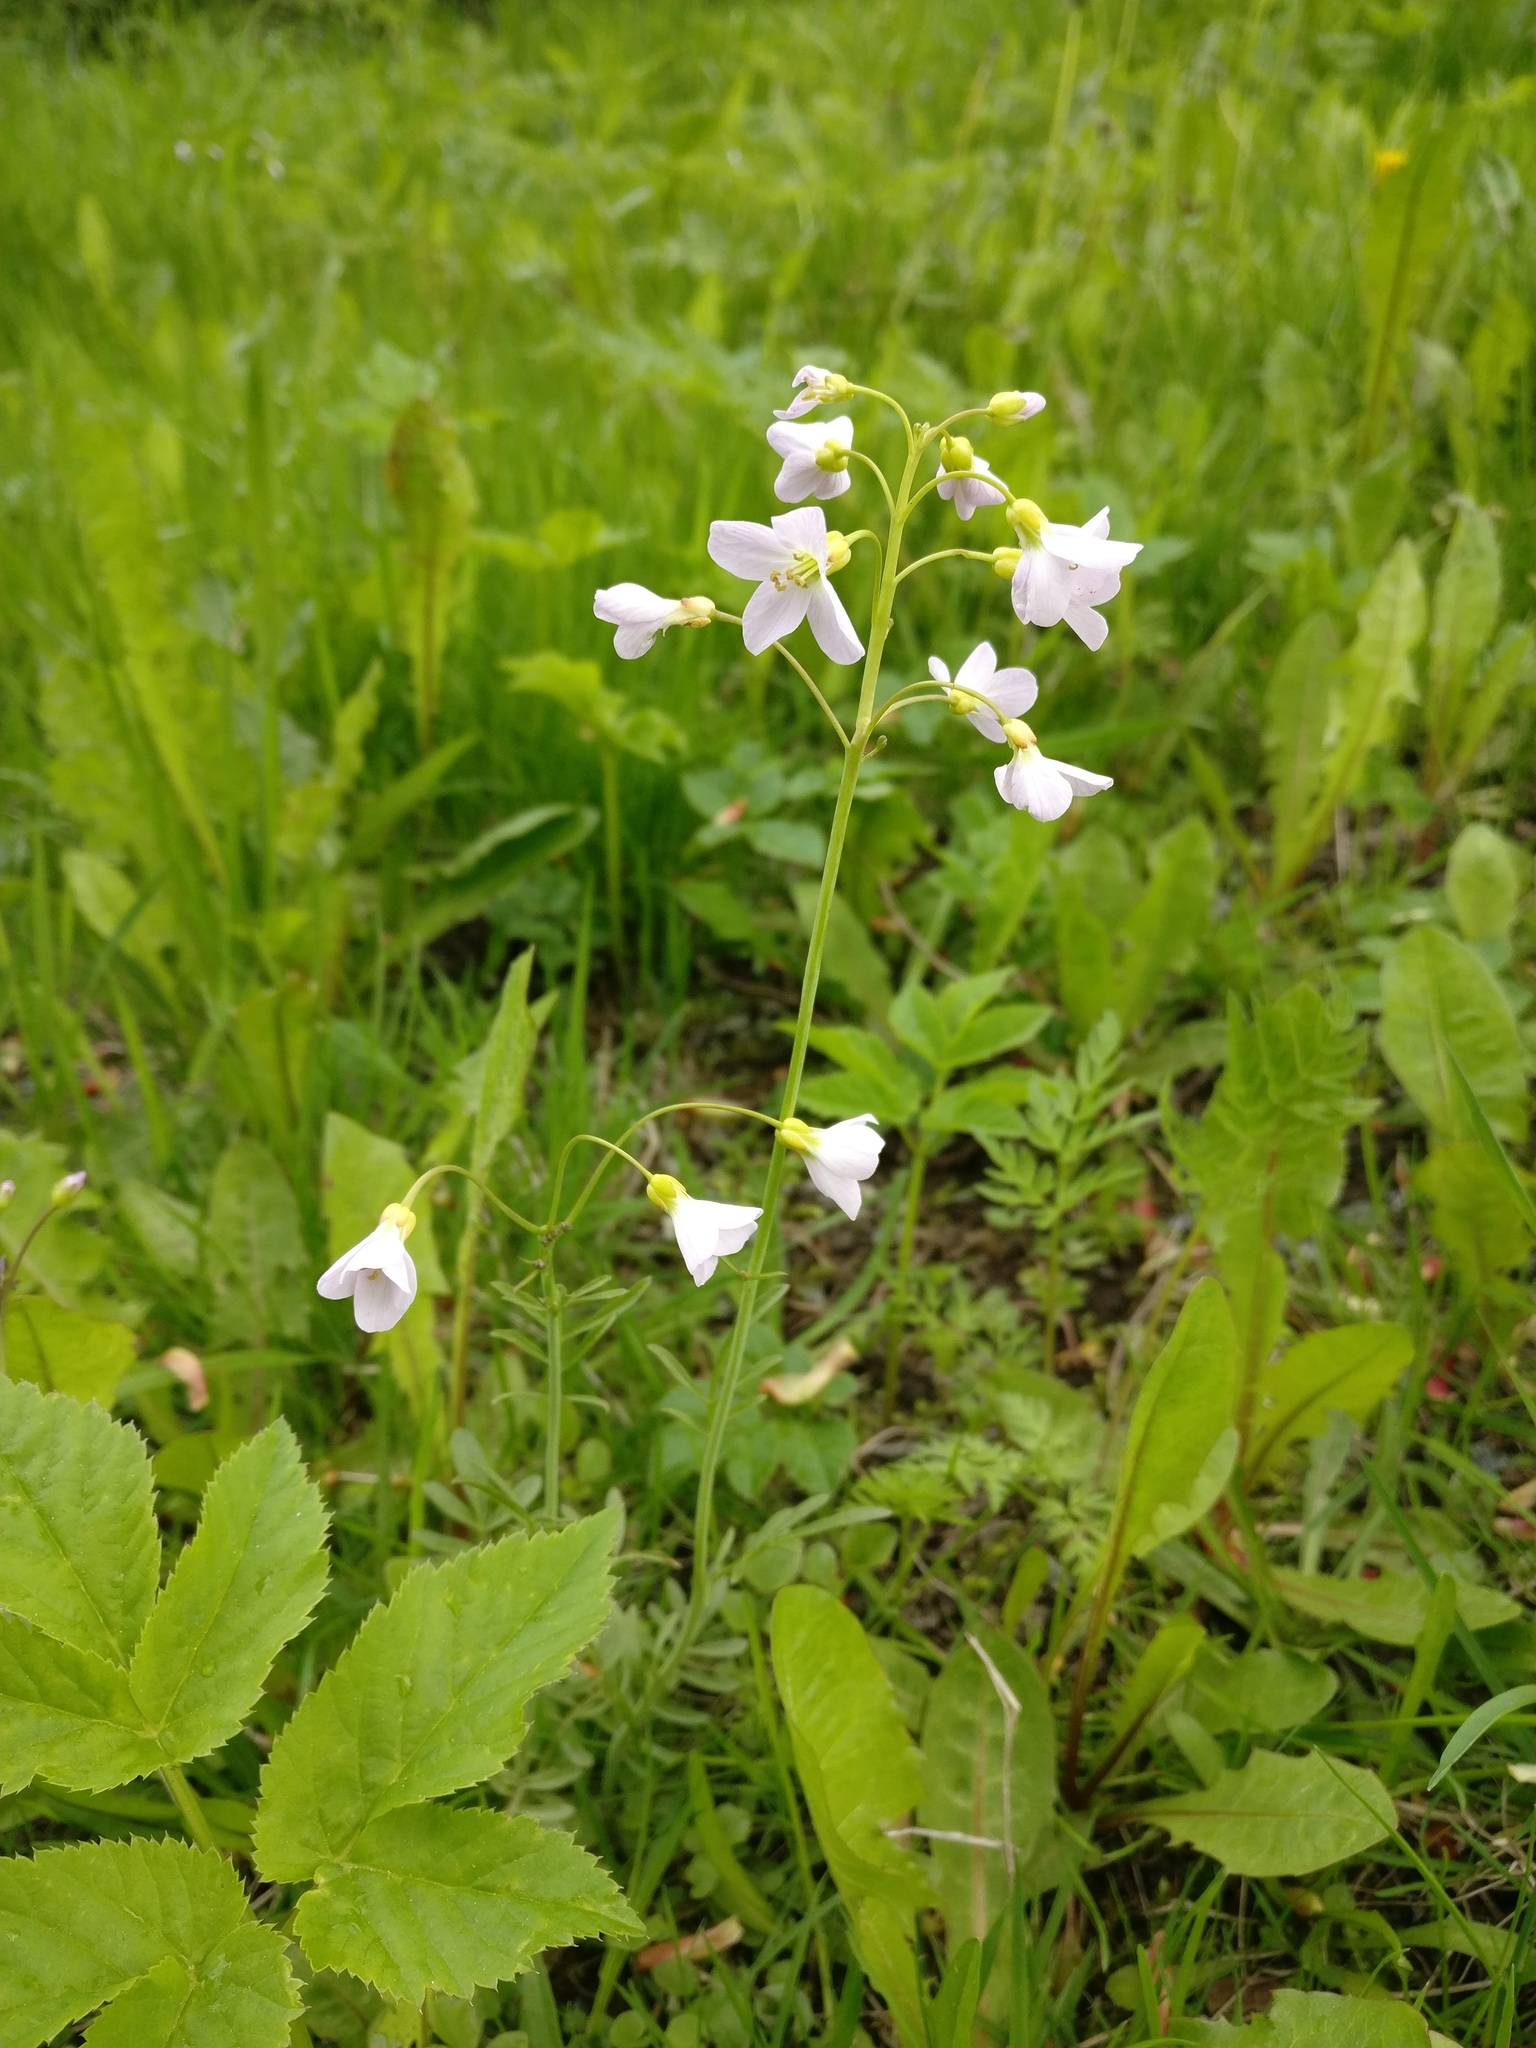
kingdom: Plantae
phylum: Tracheophyta
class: Magnoliopsida
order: Brassicales
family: Brassicaceae
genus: Cardamine
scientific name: Cardamine pratensis
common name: Cuckoo flower
